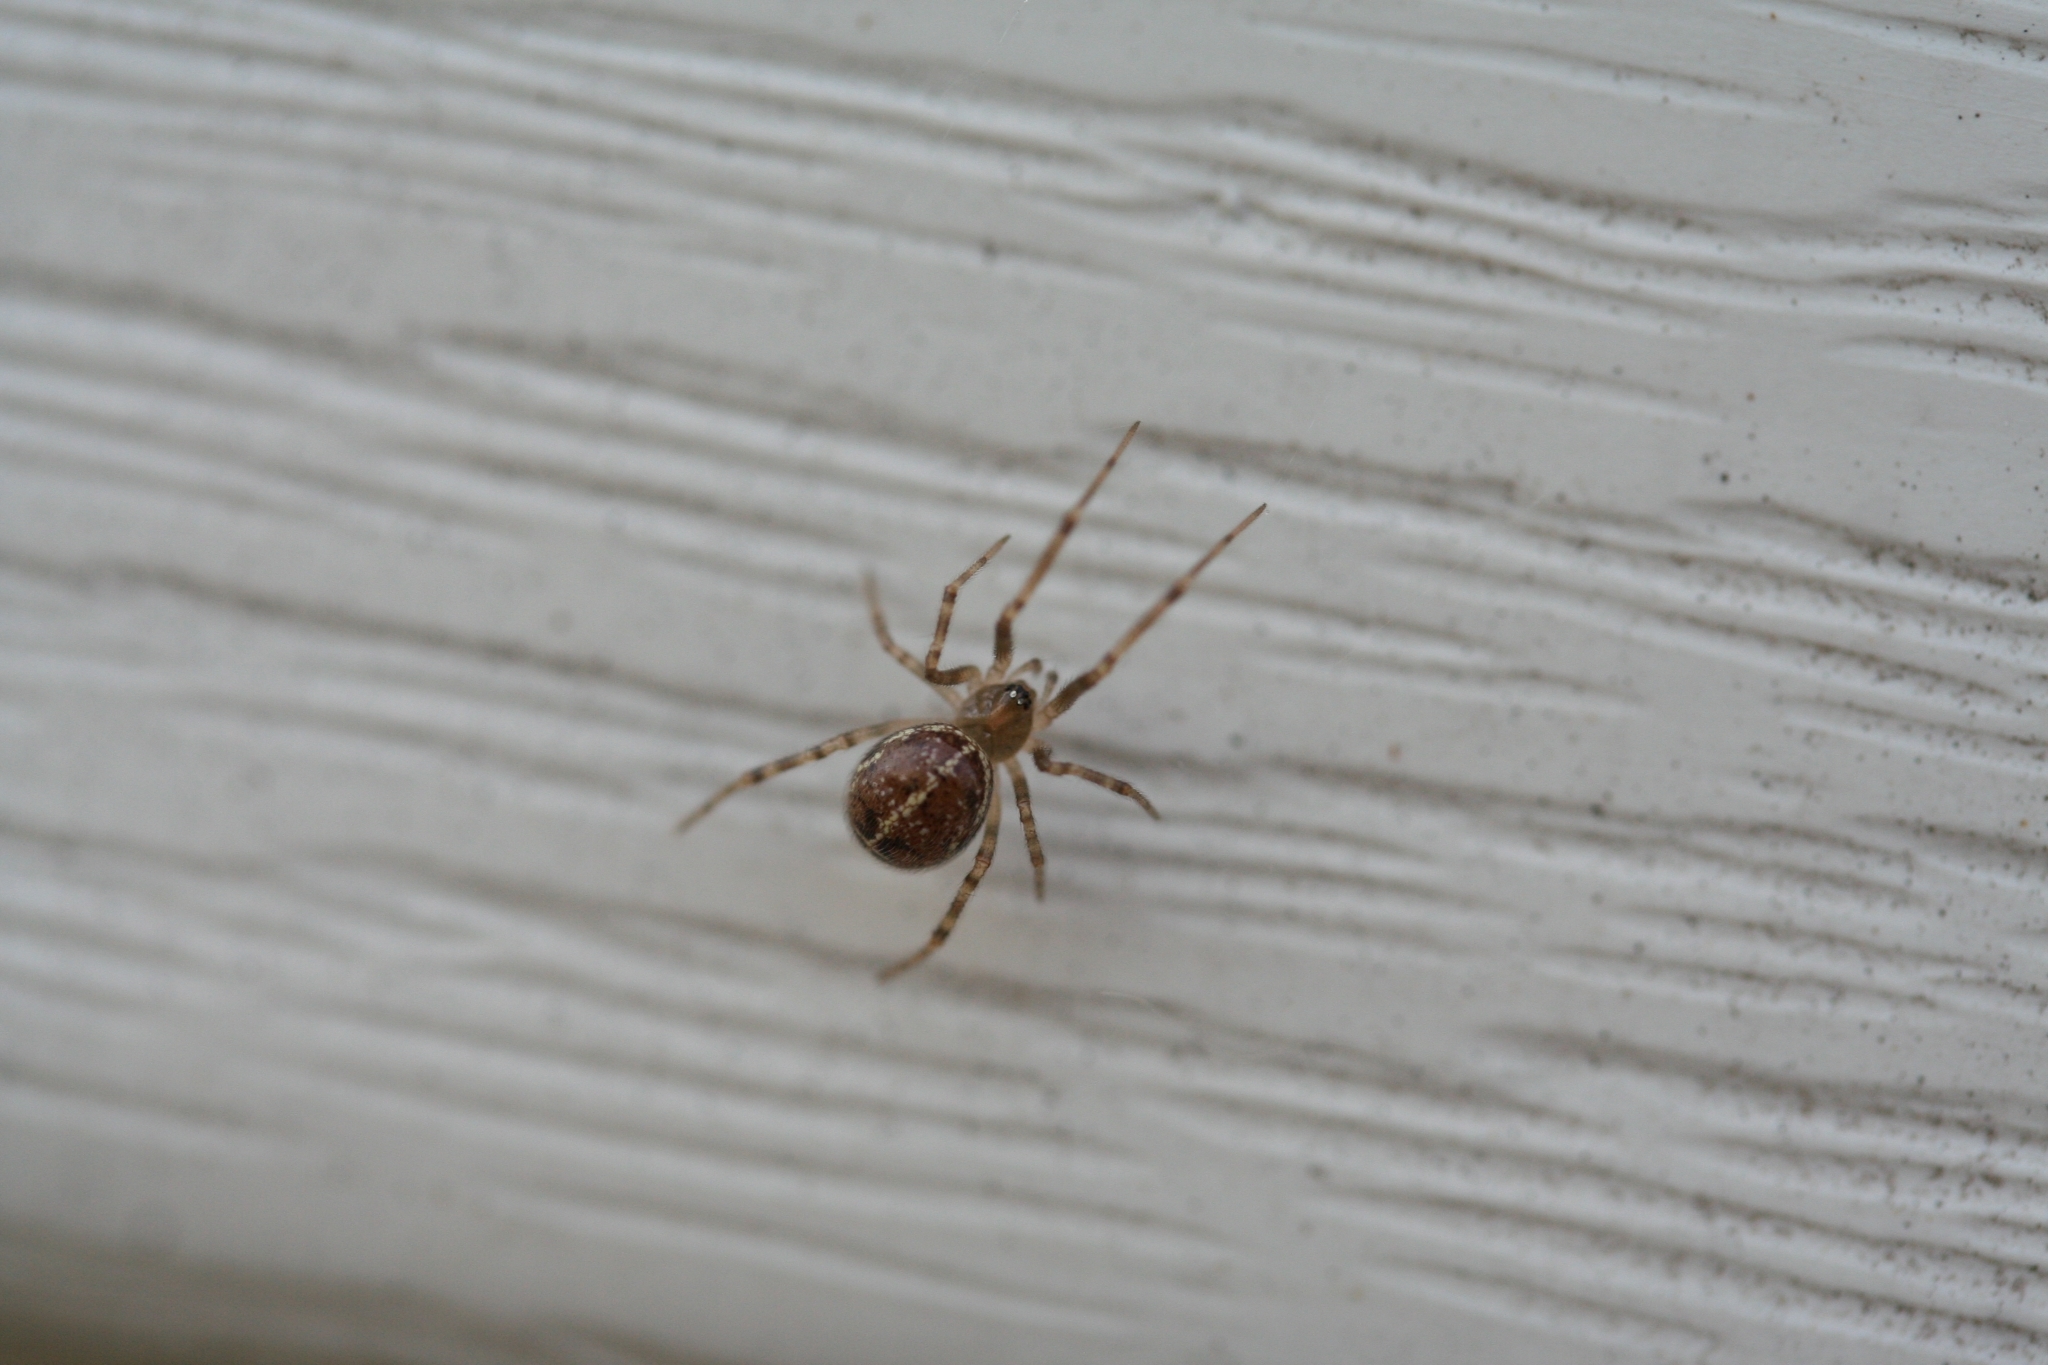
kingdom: Animalia
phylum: Arthropoda
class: Arachnida
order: Araneae
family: Theridiidae
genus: Steatoda
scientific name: Steatoda castanea
